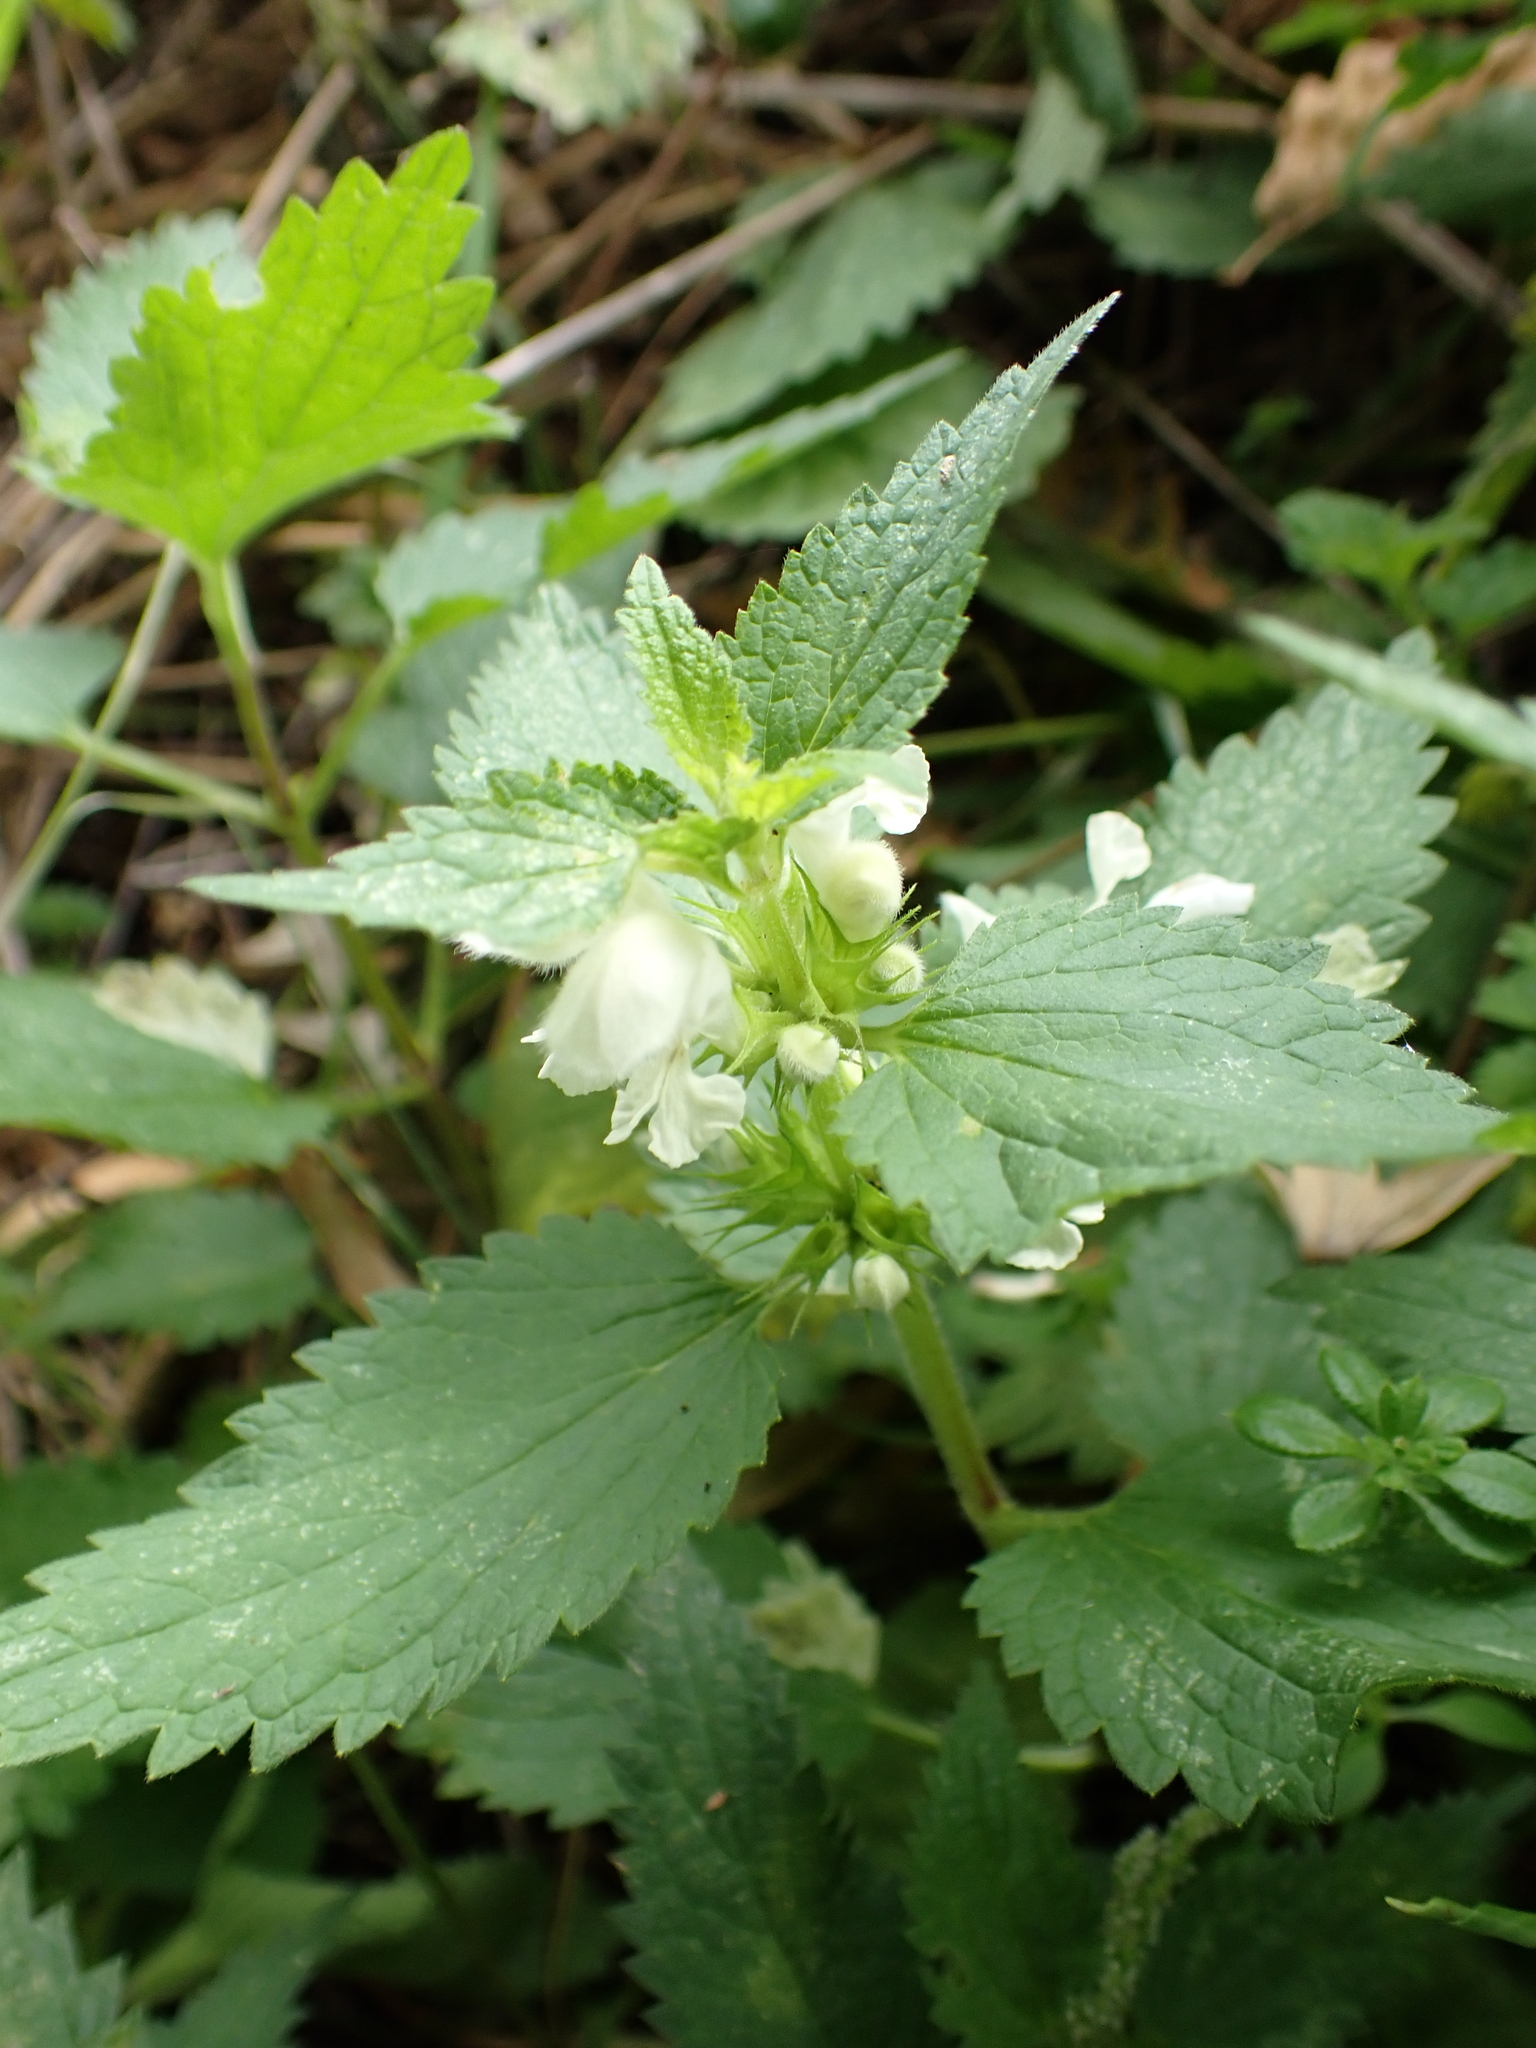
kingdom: Plantae
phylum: Tracheophyta
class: Magnoliopsida
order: Lamiales
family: Lamiaceae
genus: Lamium
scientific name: Lamium album
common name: White dead-nettle
